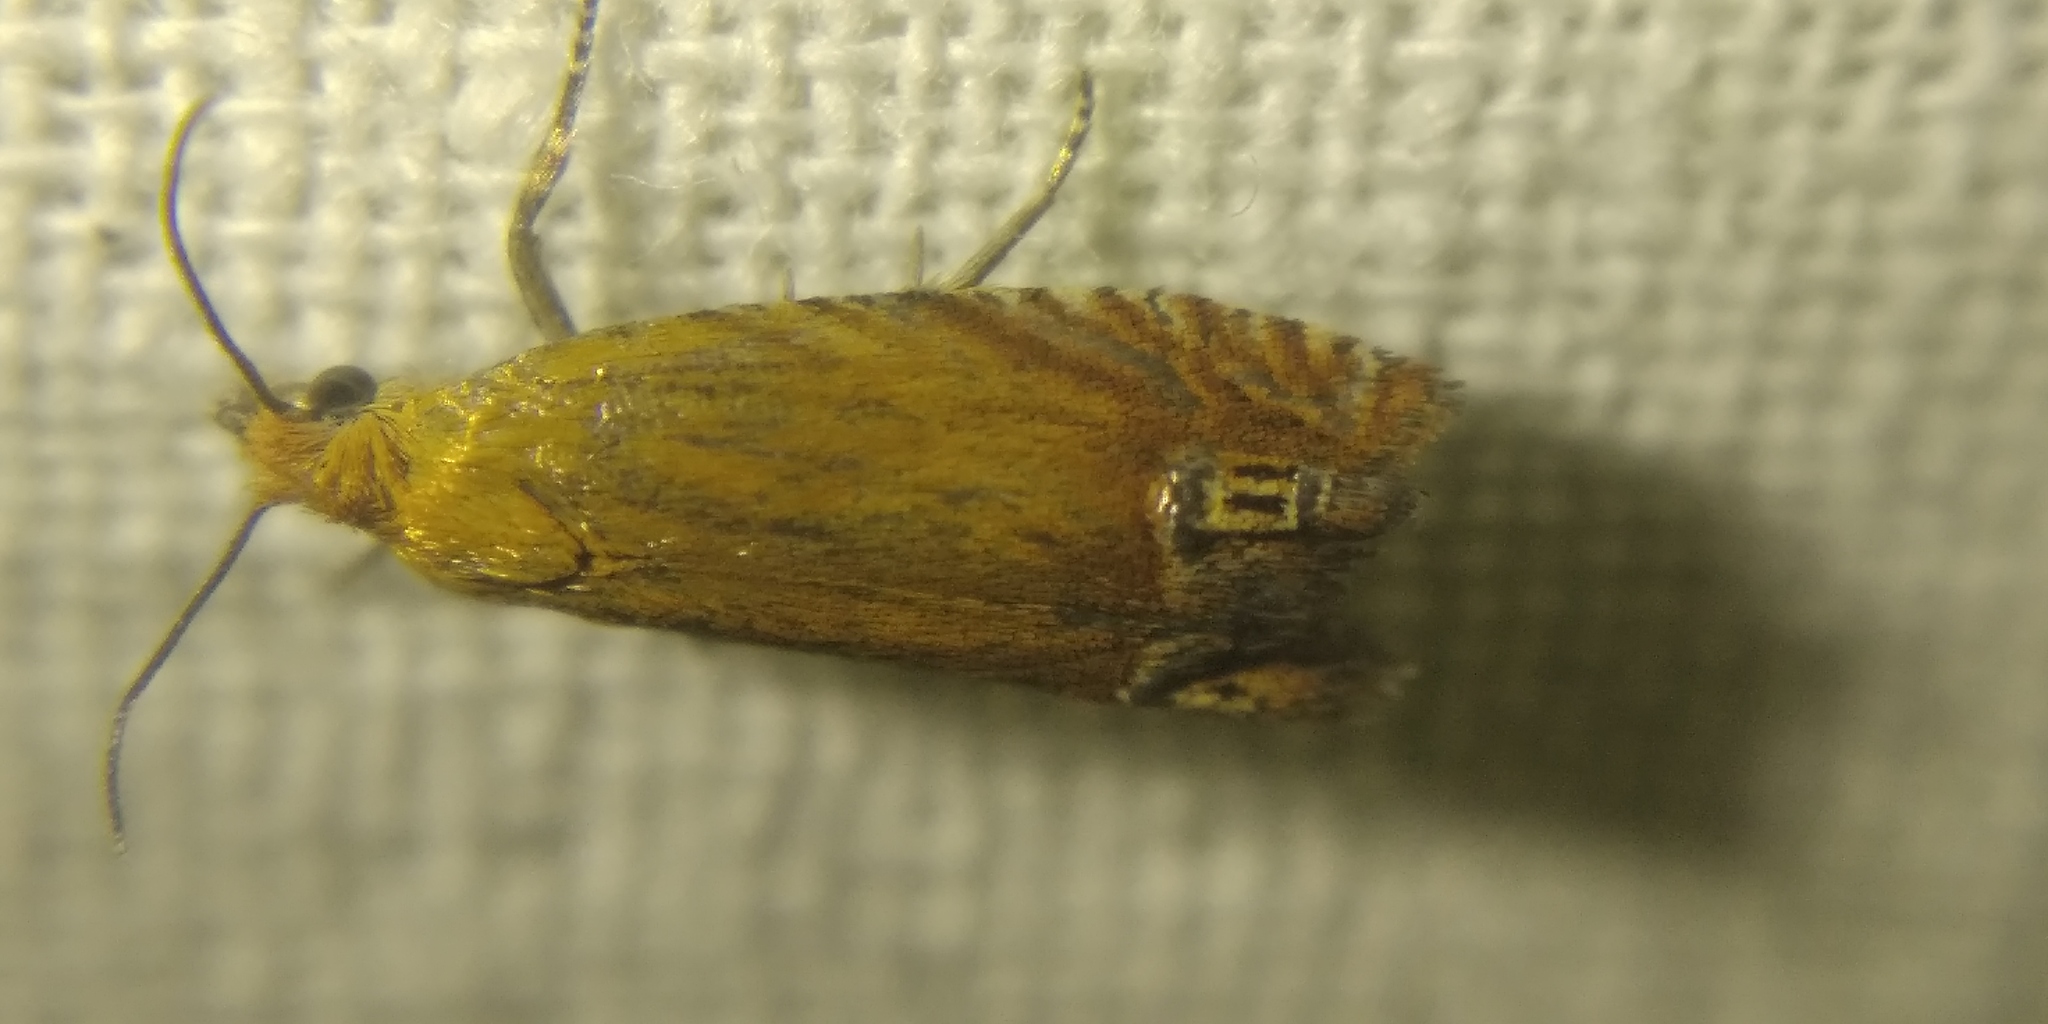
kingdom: Animalia
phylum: Arthropoda
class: Insecta
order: Lepidoptera
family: Tortricidae
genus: Lathronympha
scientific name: Lathronympha strigana
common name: Red piercer
